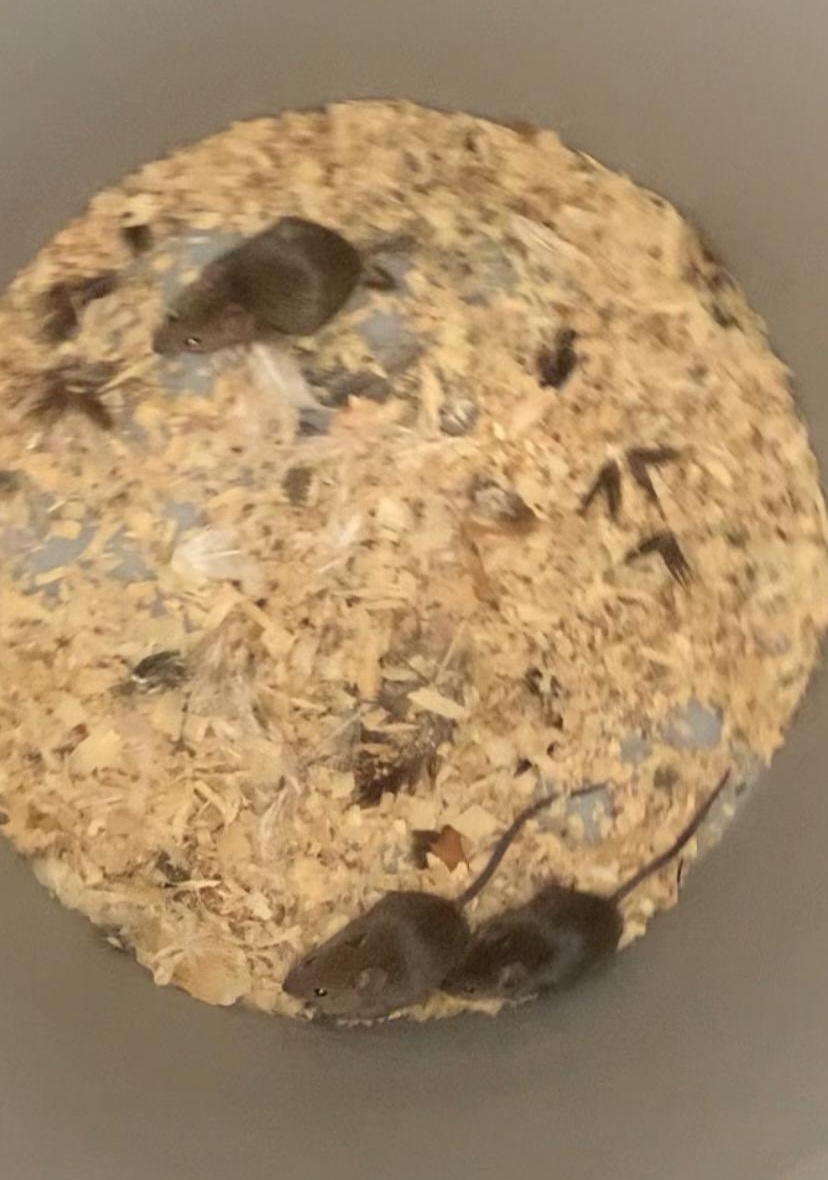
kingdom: Animalia
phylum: Chordata
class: Mammalia
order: Rodentia
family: Muridae
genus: Mus
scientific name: Mus musculus
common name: House mouse
